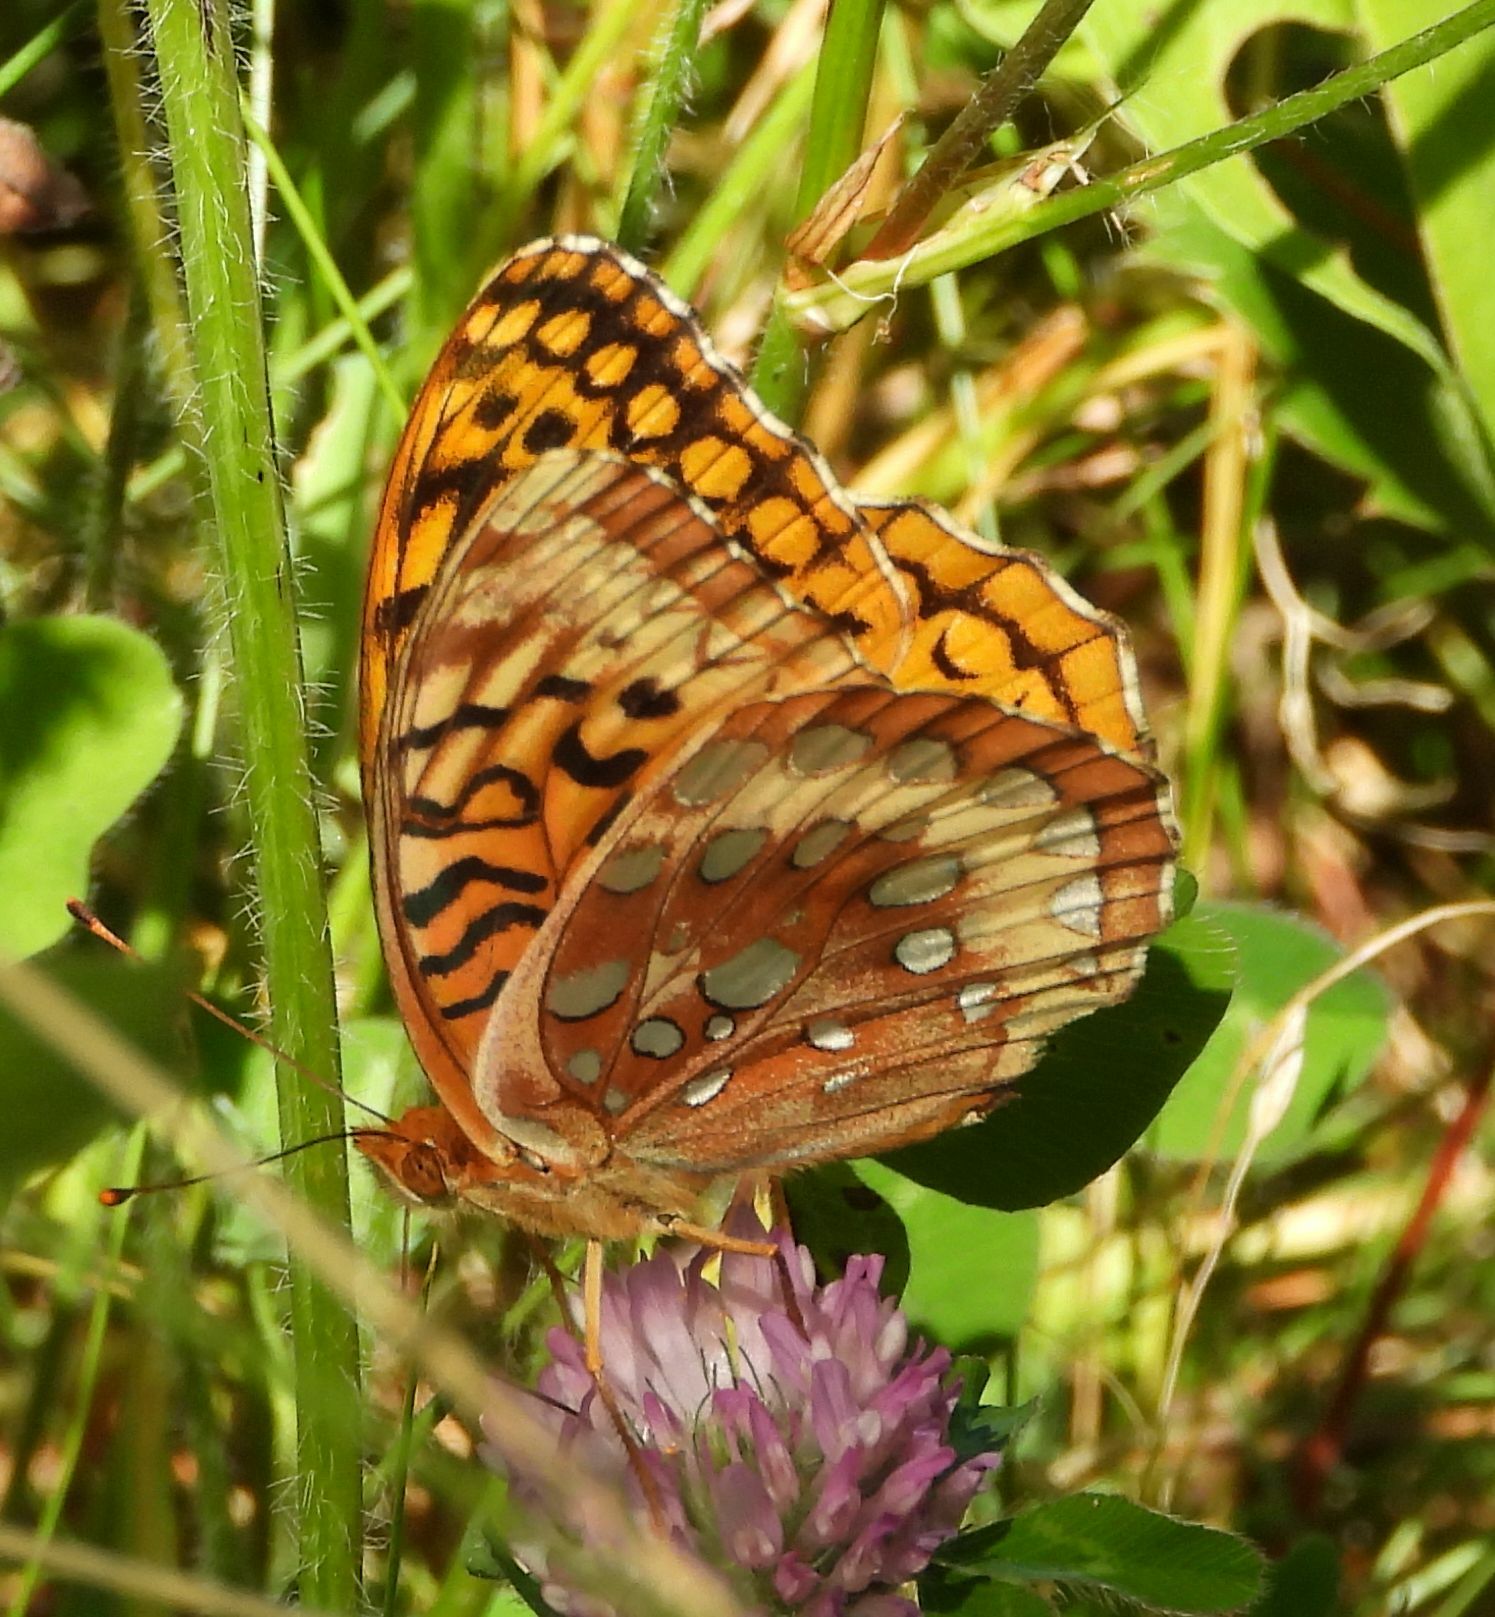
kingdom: Animalia
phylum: Arthropoda
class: Insecta
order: Lepidoptera
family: Nymphalidae
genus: Speyeria
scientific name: Speyeria cybele
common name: Great spangled fritillary
